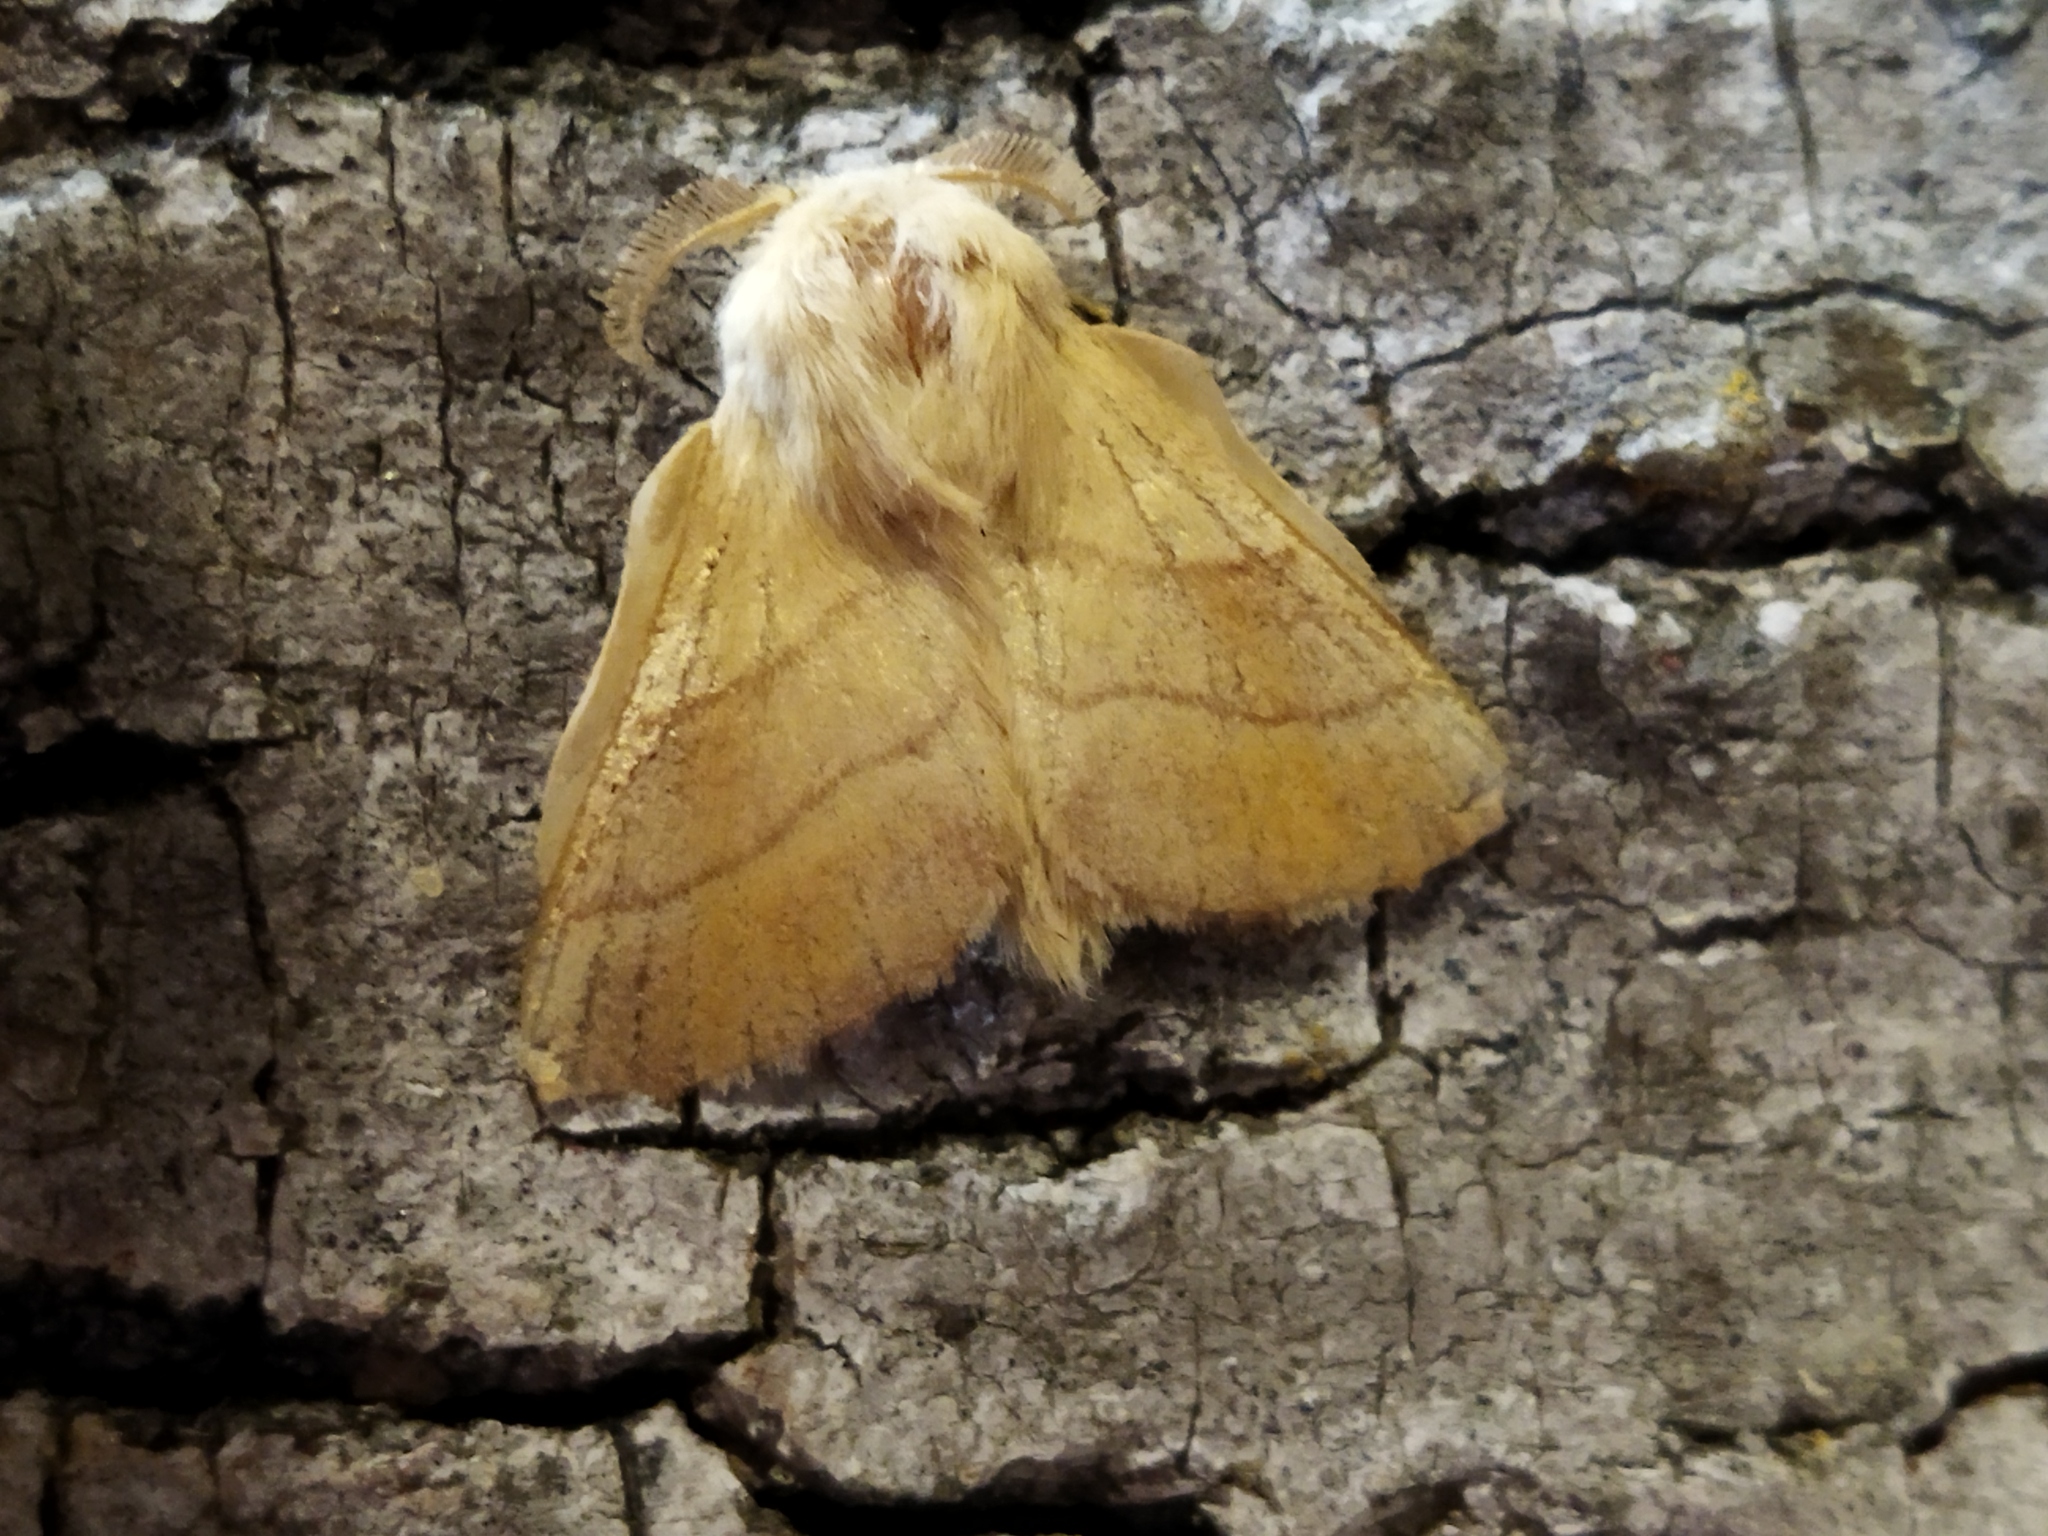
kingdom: Animalia
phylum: Arthropoda
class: Insecta
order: Lepidoptera
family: Lasiocampidae
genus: Malacosoma
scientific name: Malacosoma neustria
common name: The lackey
